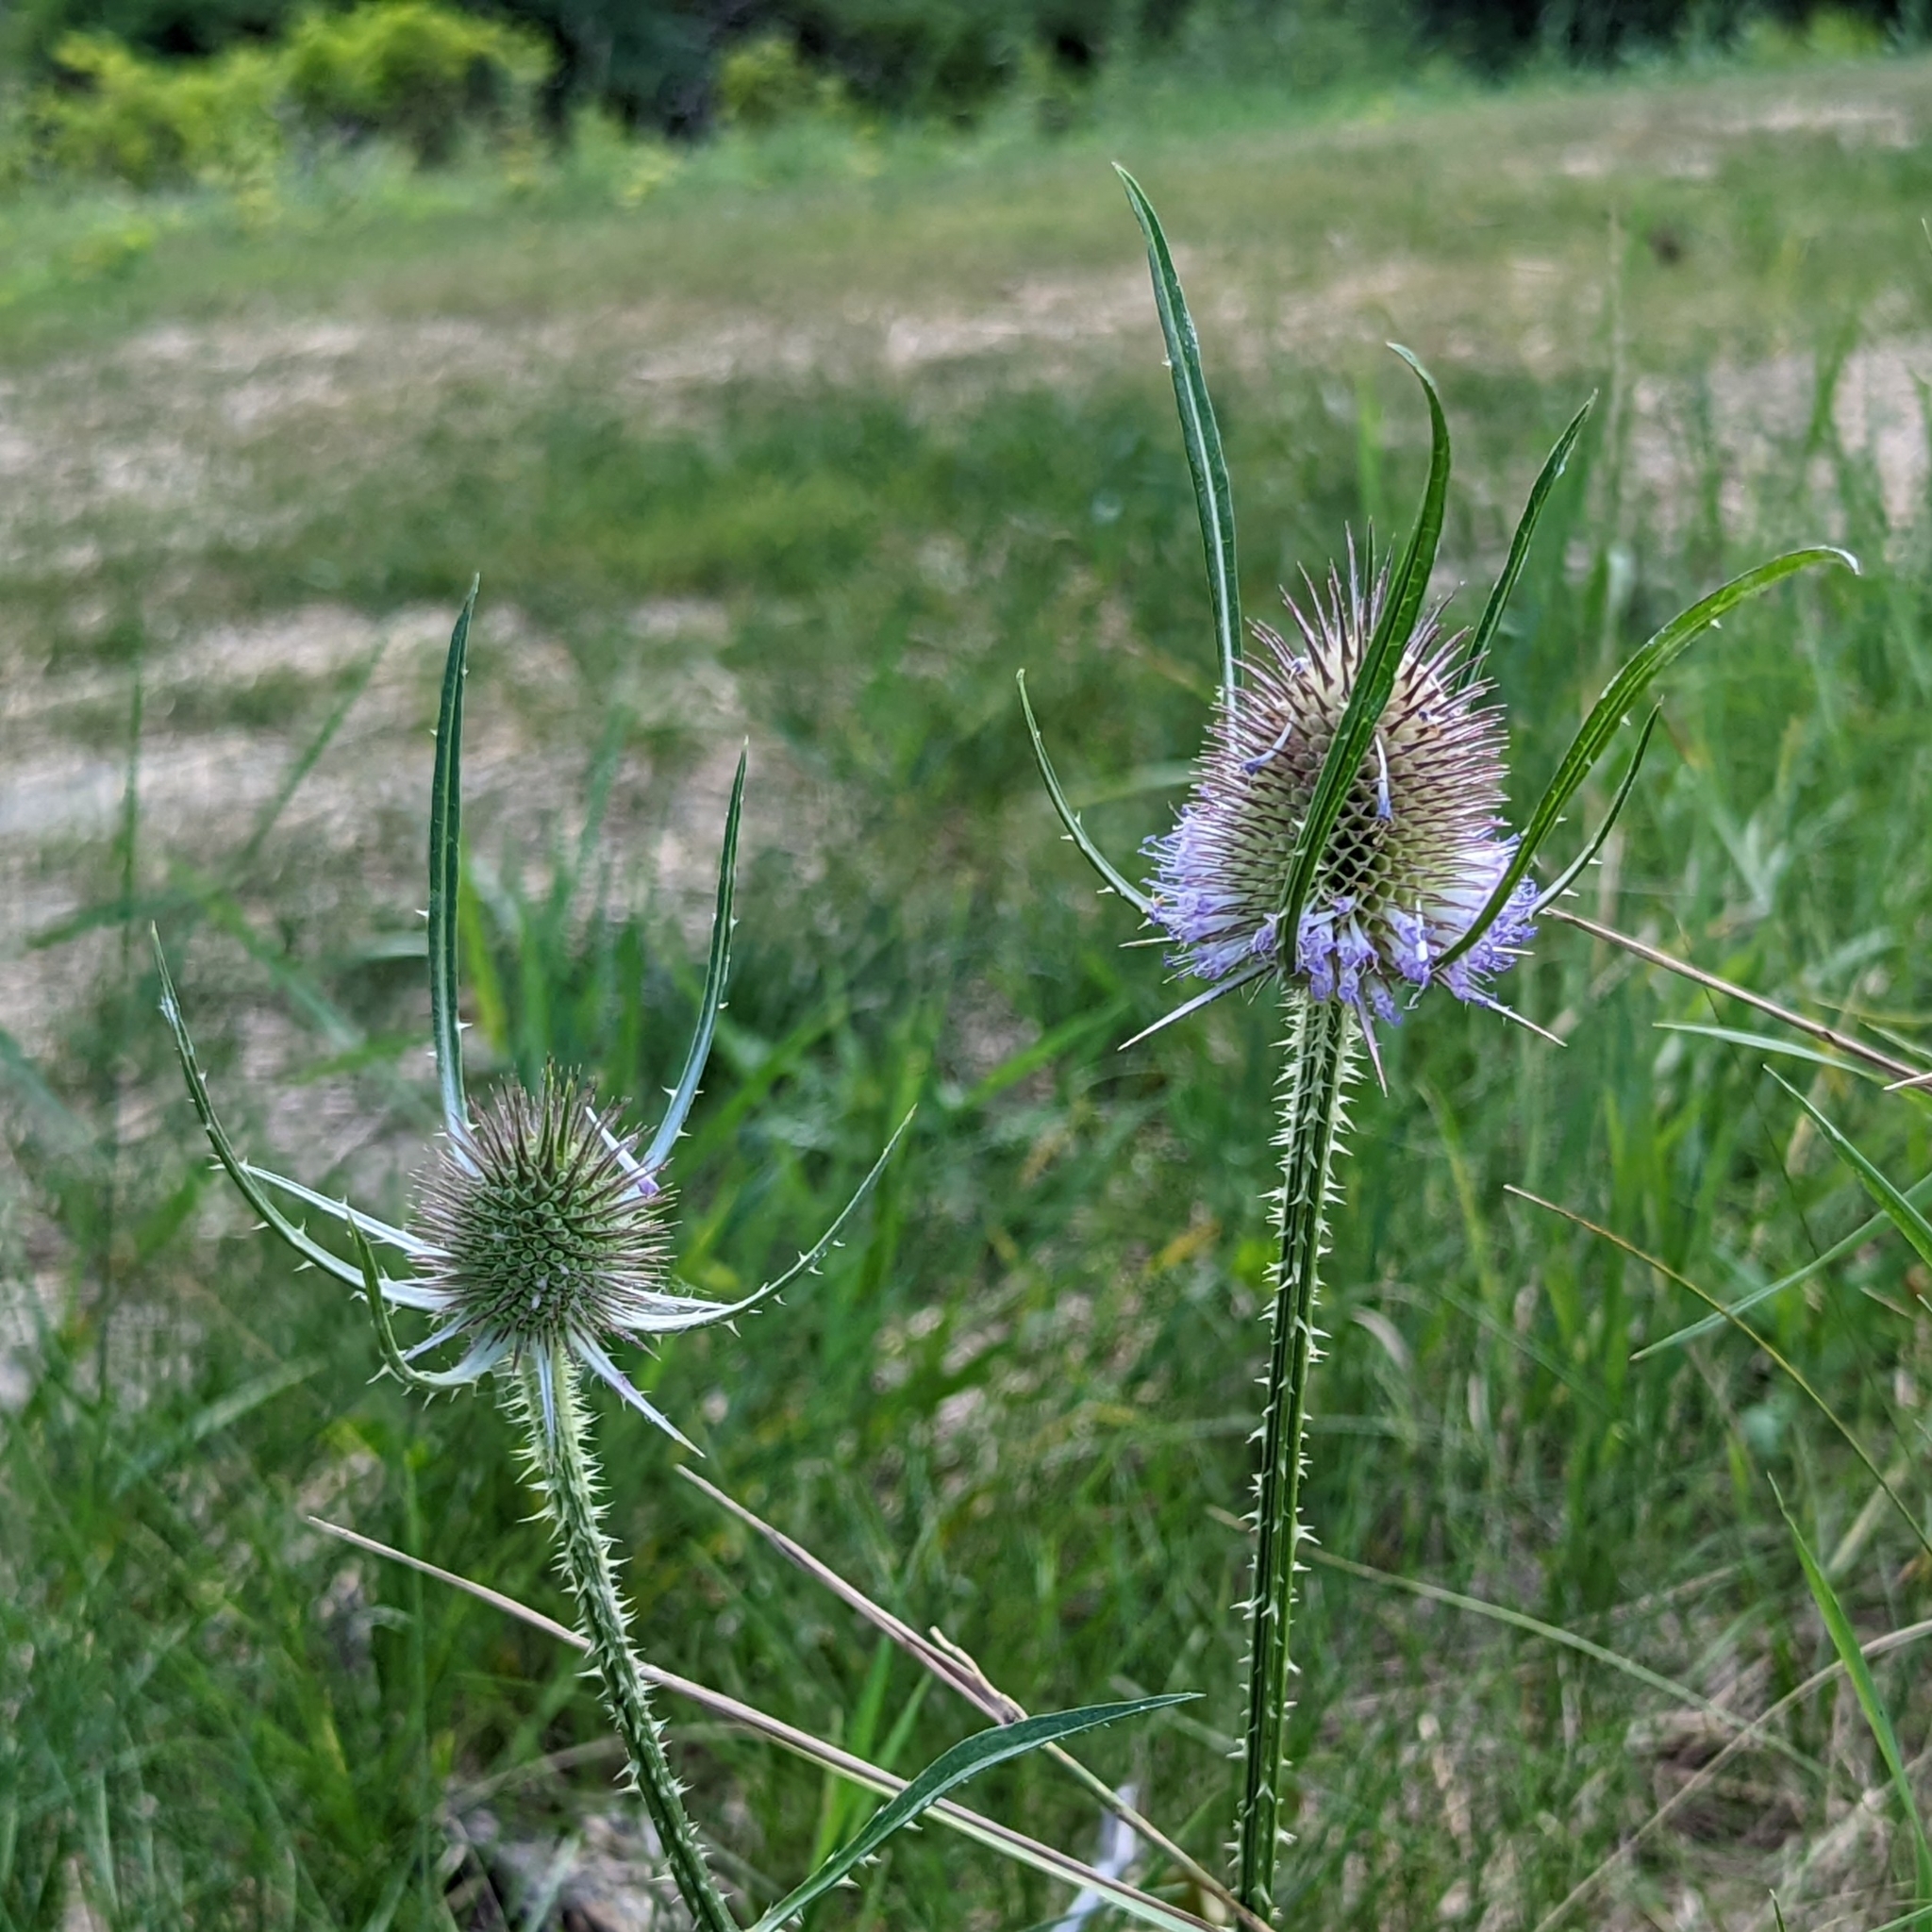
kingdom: Plantae
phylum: Tracheophyta
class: Magnoliopsida
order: Dipsacales
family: Caprifoliaceae
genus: Dipsacus
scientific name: Dipsacus fullonum
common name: Teasel
